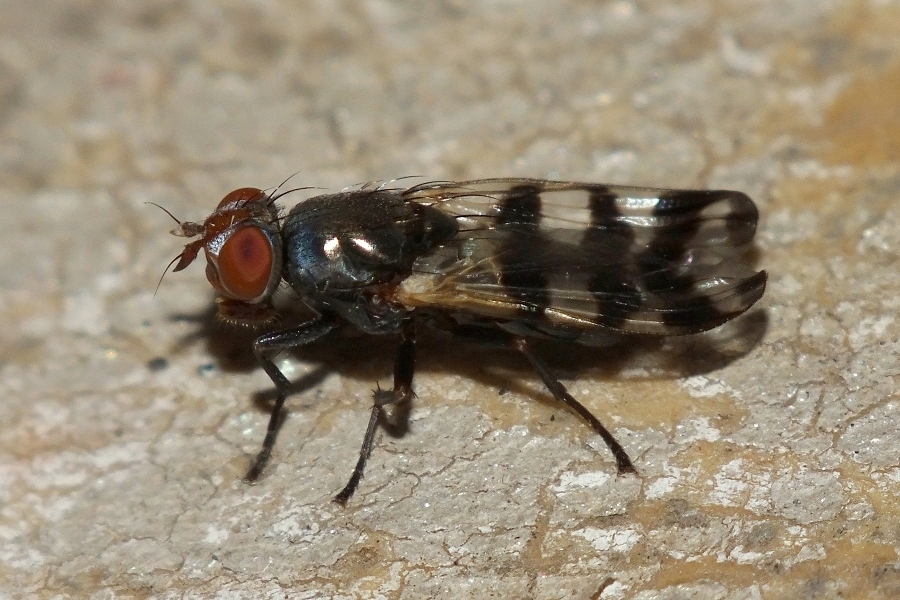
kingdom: Animalia
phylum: Arthropoda
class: Insecta
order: Diptera
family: Ulidiidae
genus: Ceroxys
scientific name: Ceroxys urticae
